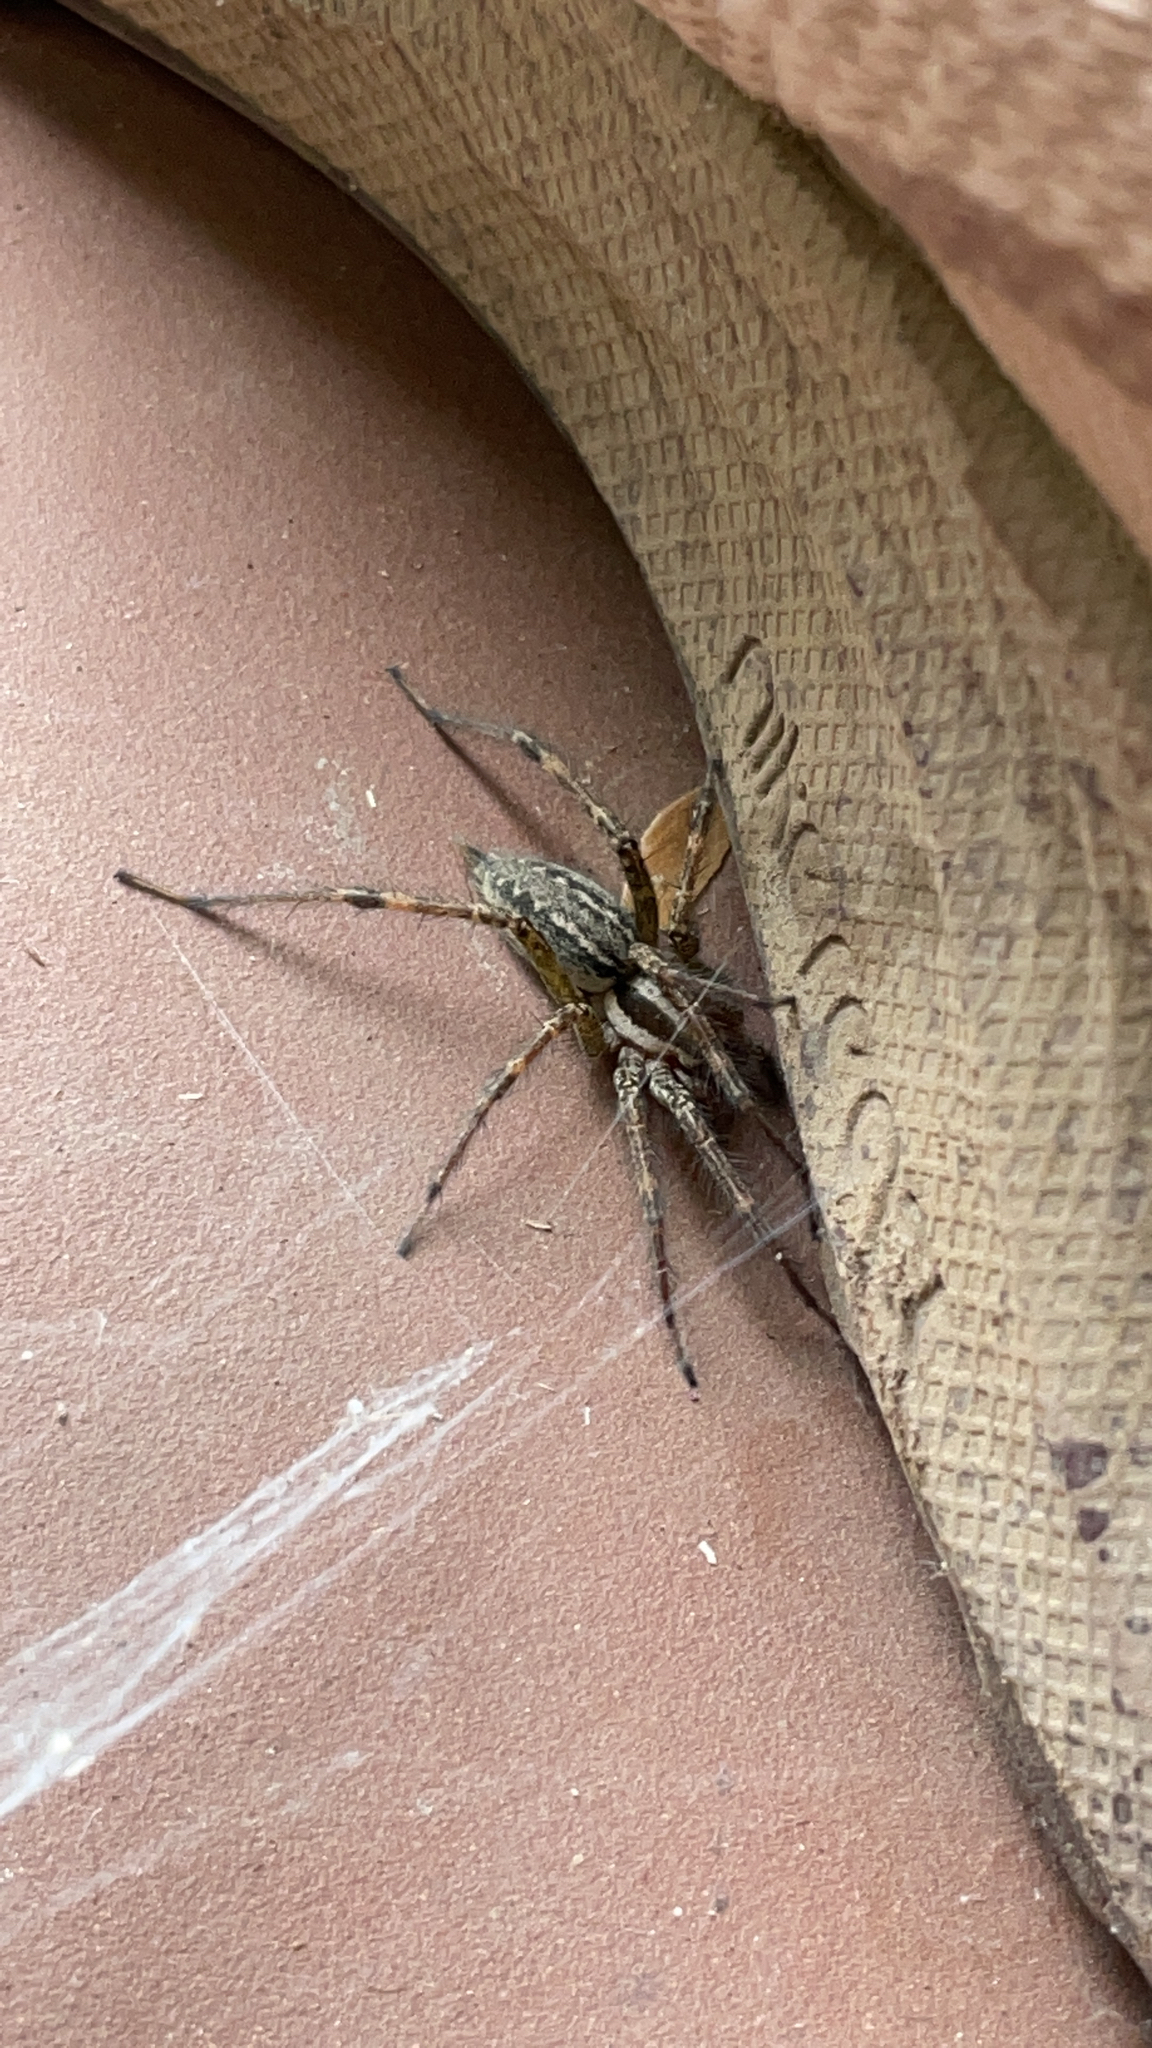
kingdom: Animalia
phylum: Arthropoda
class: Arachnida
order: Araneae
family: Agelenidae
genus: Agelenopsis
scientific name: Agelenopsis
